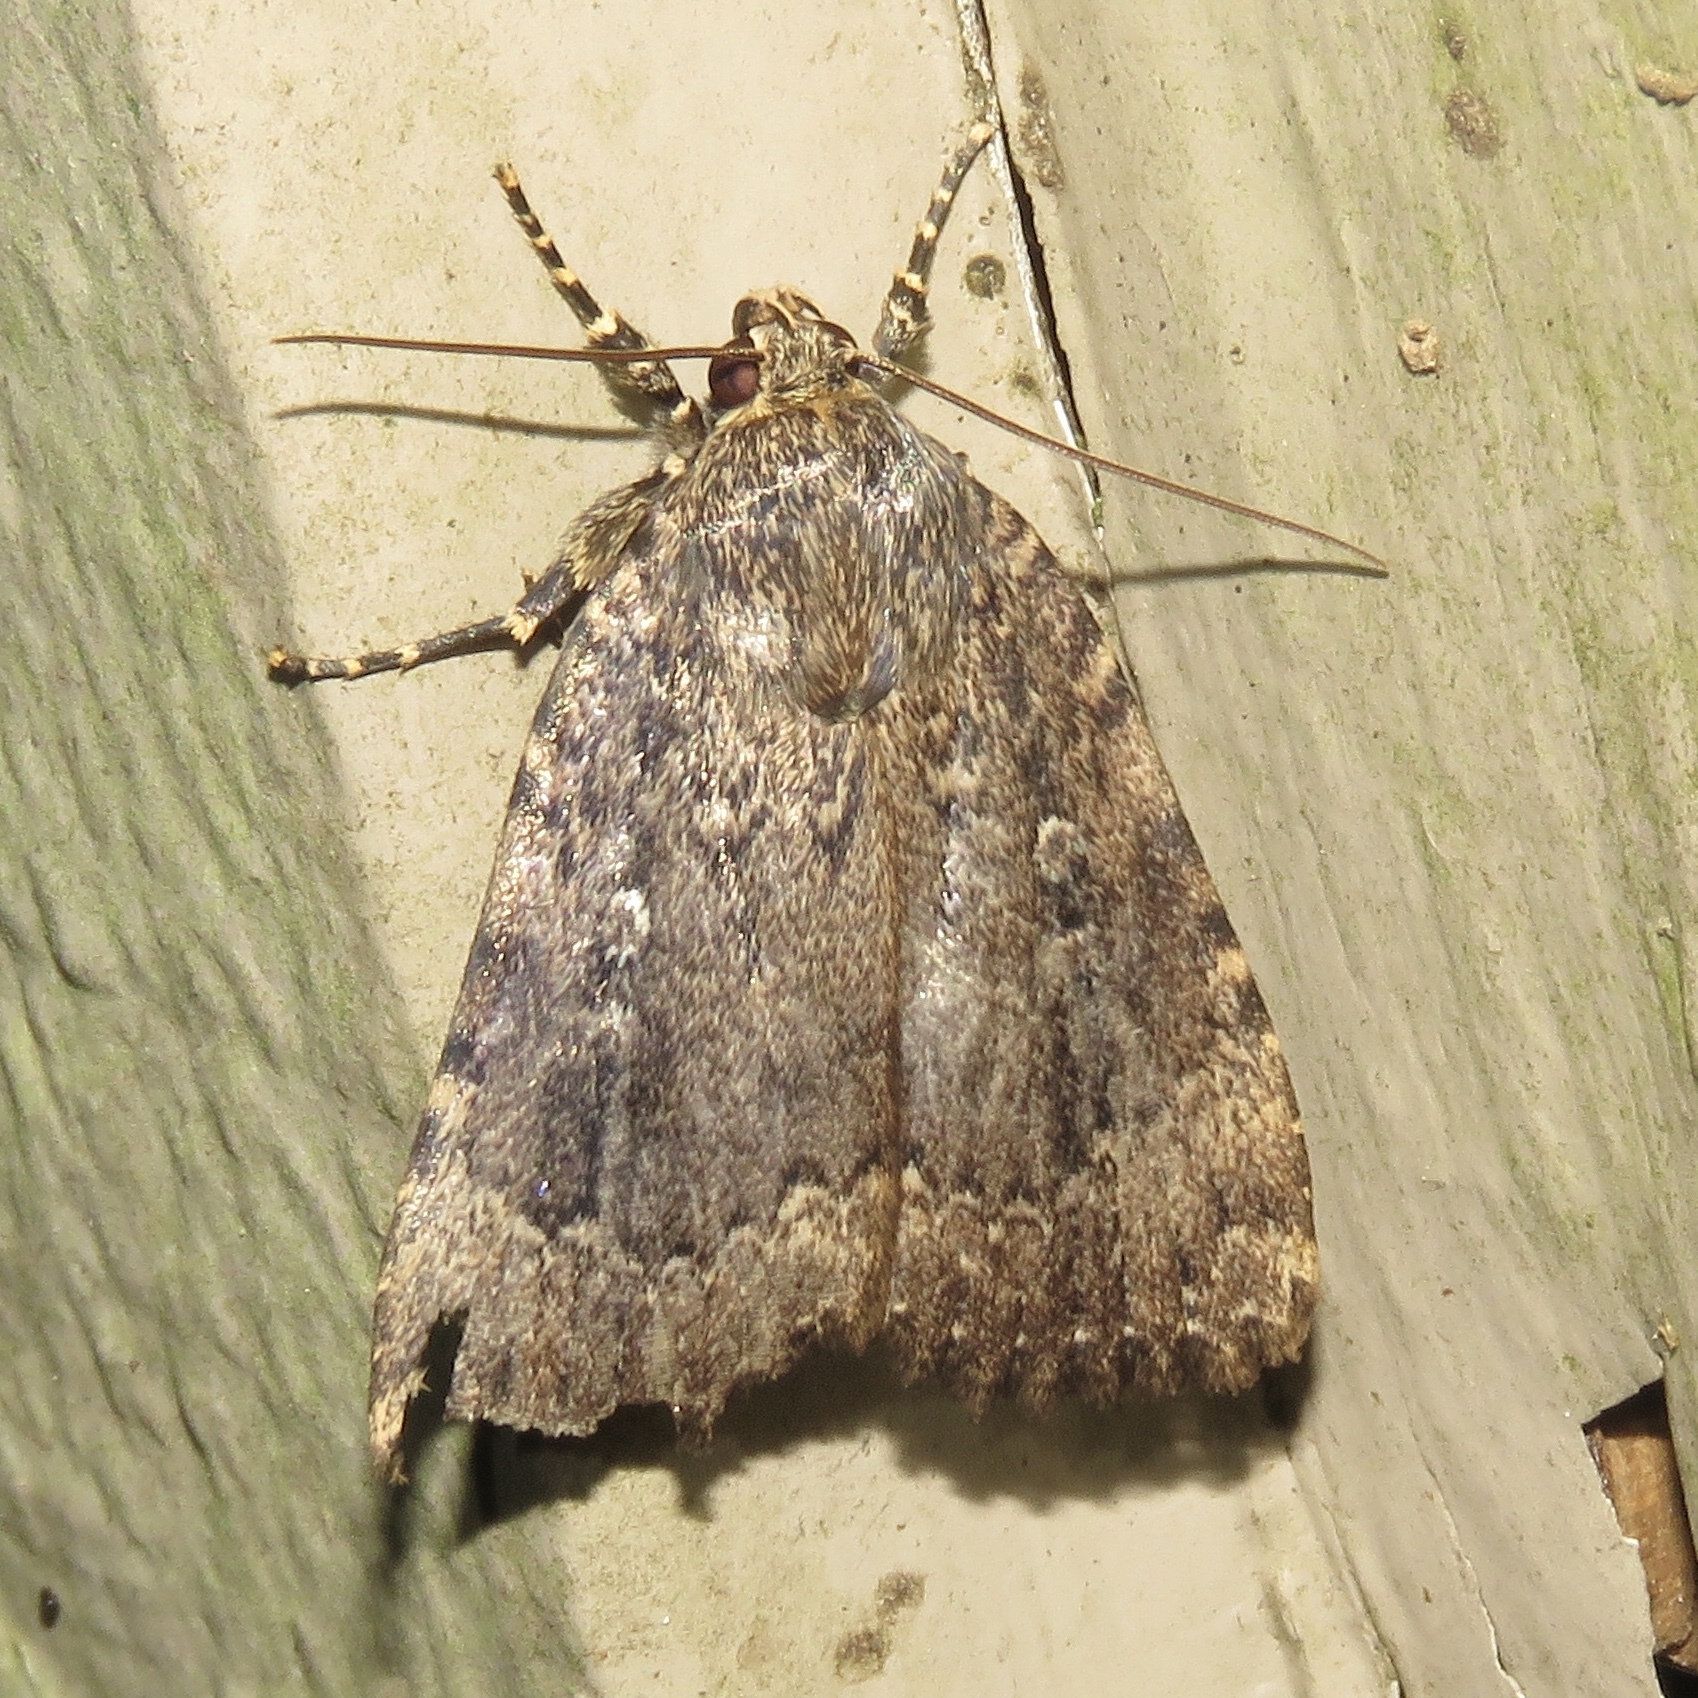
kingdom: Animalia
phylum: Arthropoda
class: Insecta
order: Lepidoptera
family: Noctuidae
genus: Amphipyra
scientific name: Amphipyra pyramidoides
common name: American copper underwing
